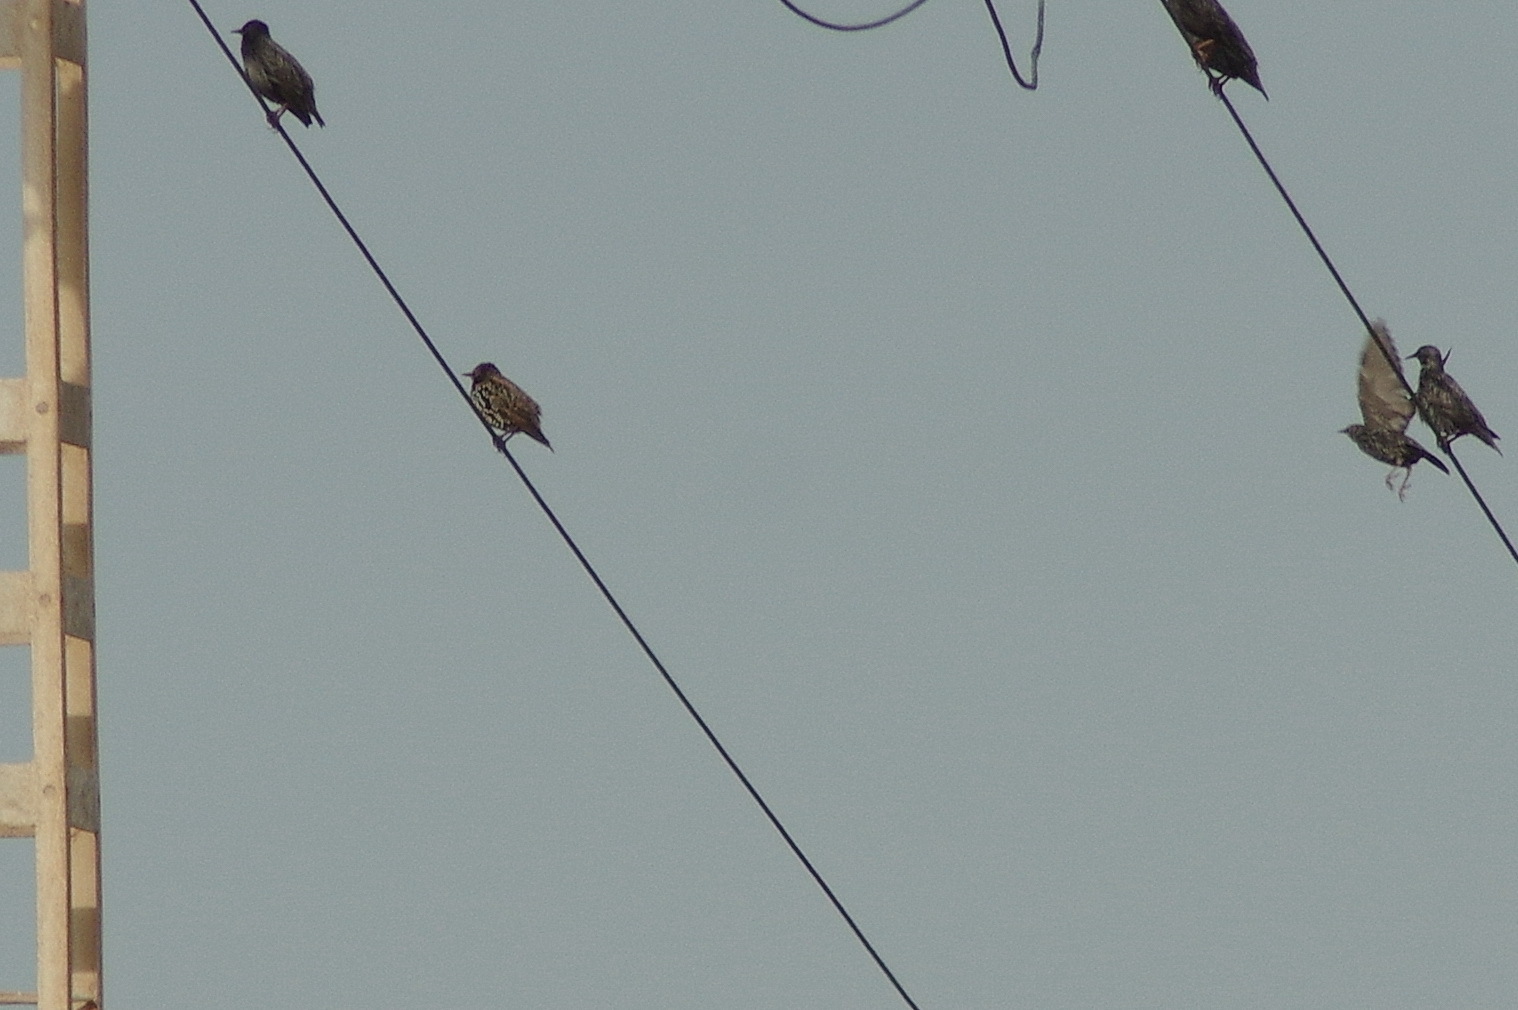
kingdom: Animalia
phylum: Chordata
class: Aves
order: Passeriformes
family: Sturnidae
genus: Sturnus
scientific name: Sturnus vulgaris
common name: Common starling
